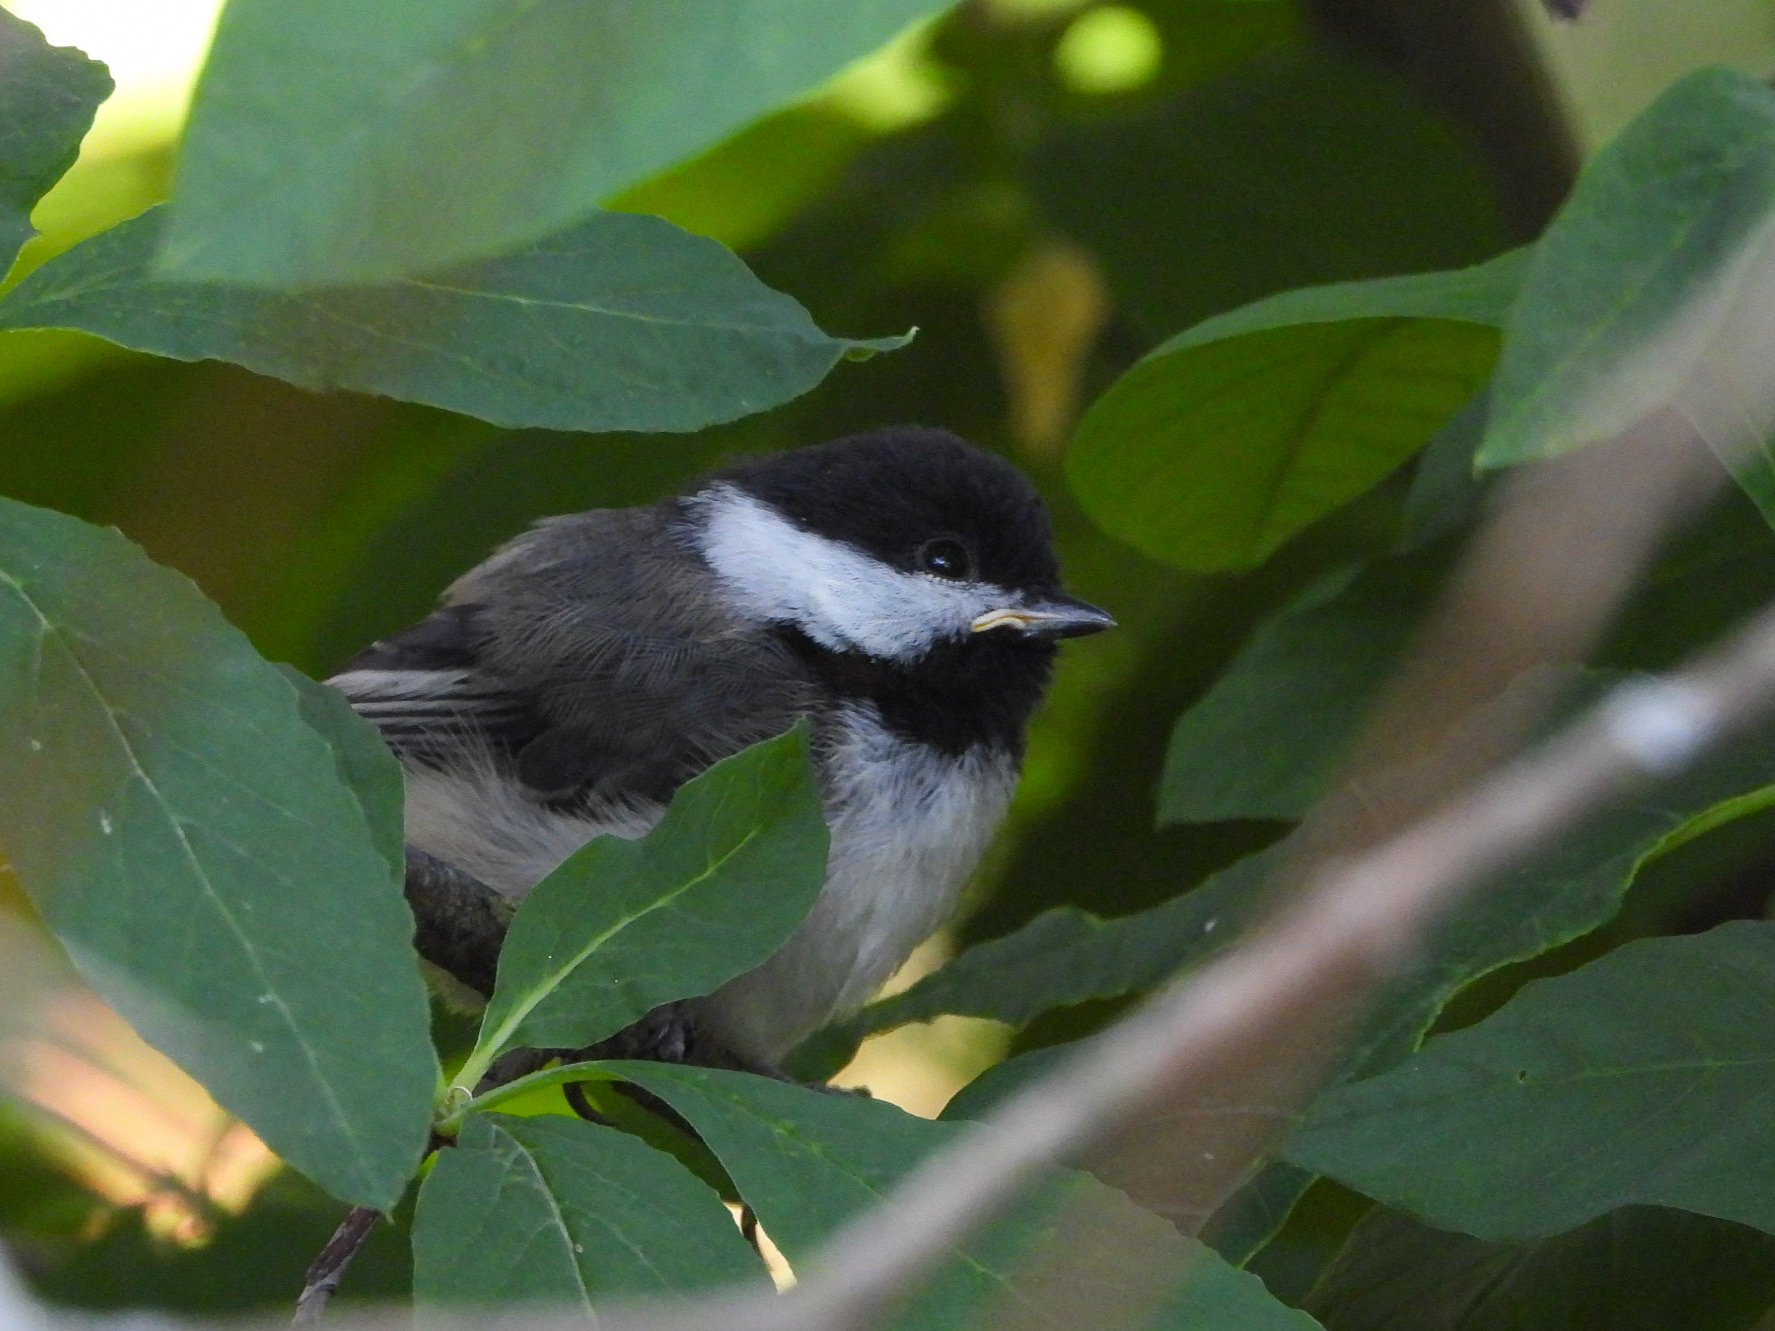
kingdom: Animalia
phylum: Chordata
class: Aves
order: Passeriformes
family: Paridae
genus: Poecile
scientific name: Poecile atricapillus
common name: Black-capped chickadee
